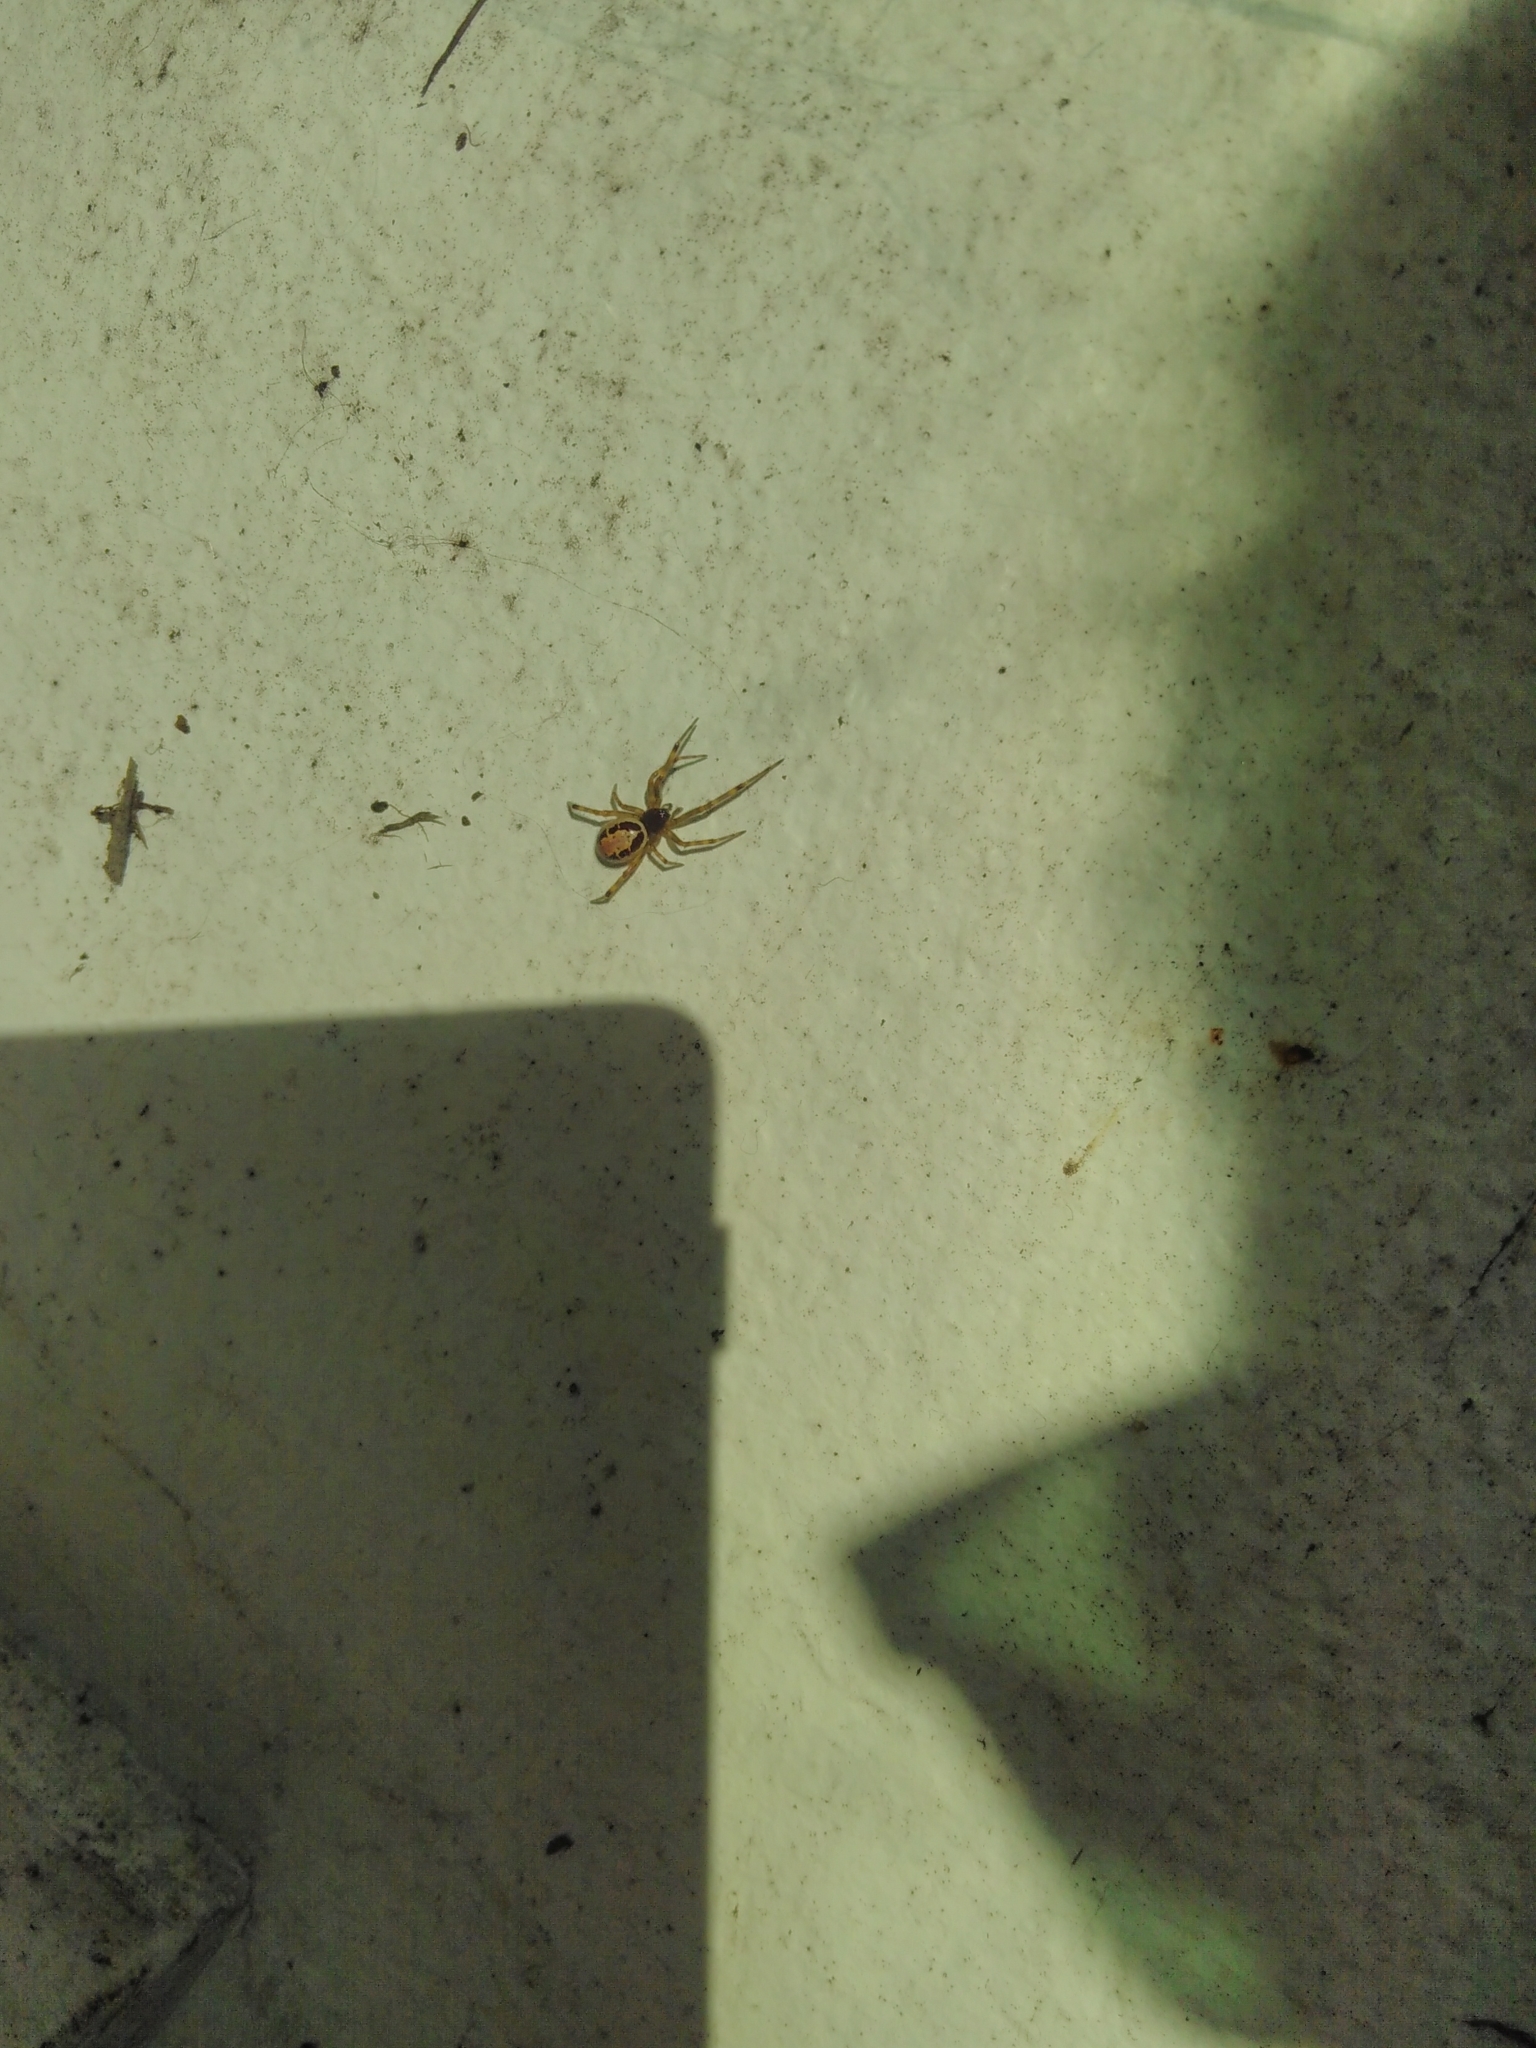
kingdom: Animalia
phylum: Arthropoda
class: Arachnida
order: Araneae
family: Theridiidae
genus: Steatoda
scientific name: Steatoda nobilis
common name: Cobweb weaver
